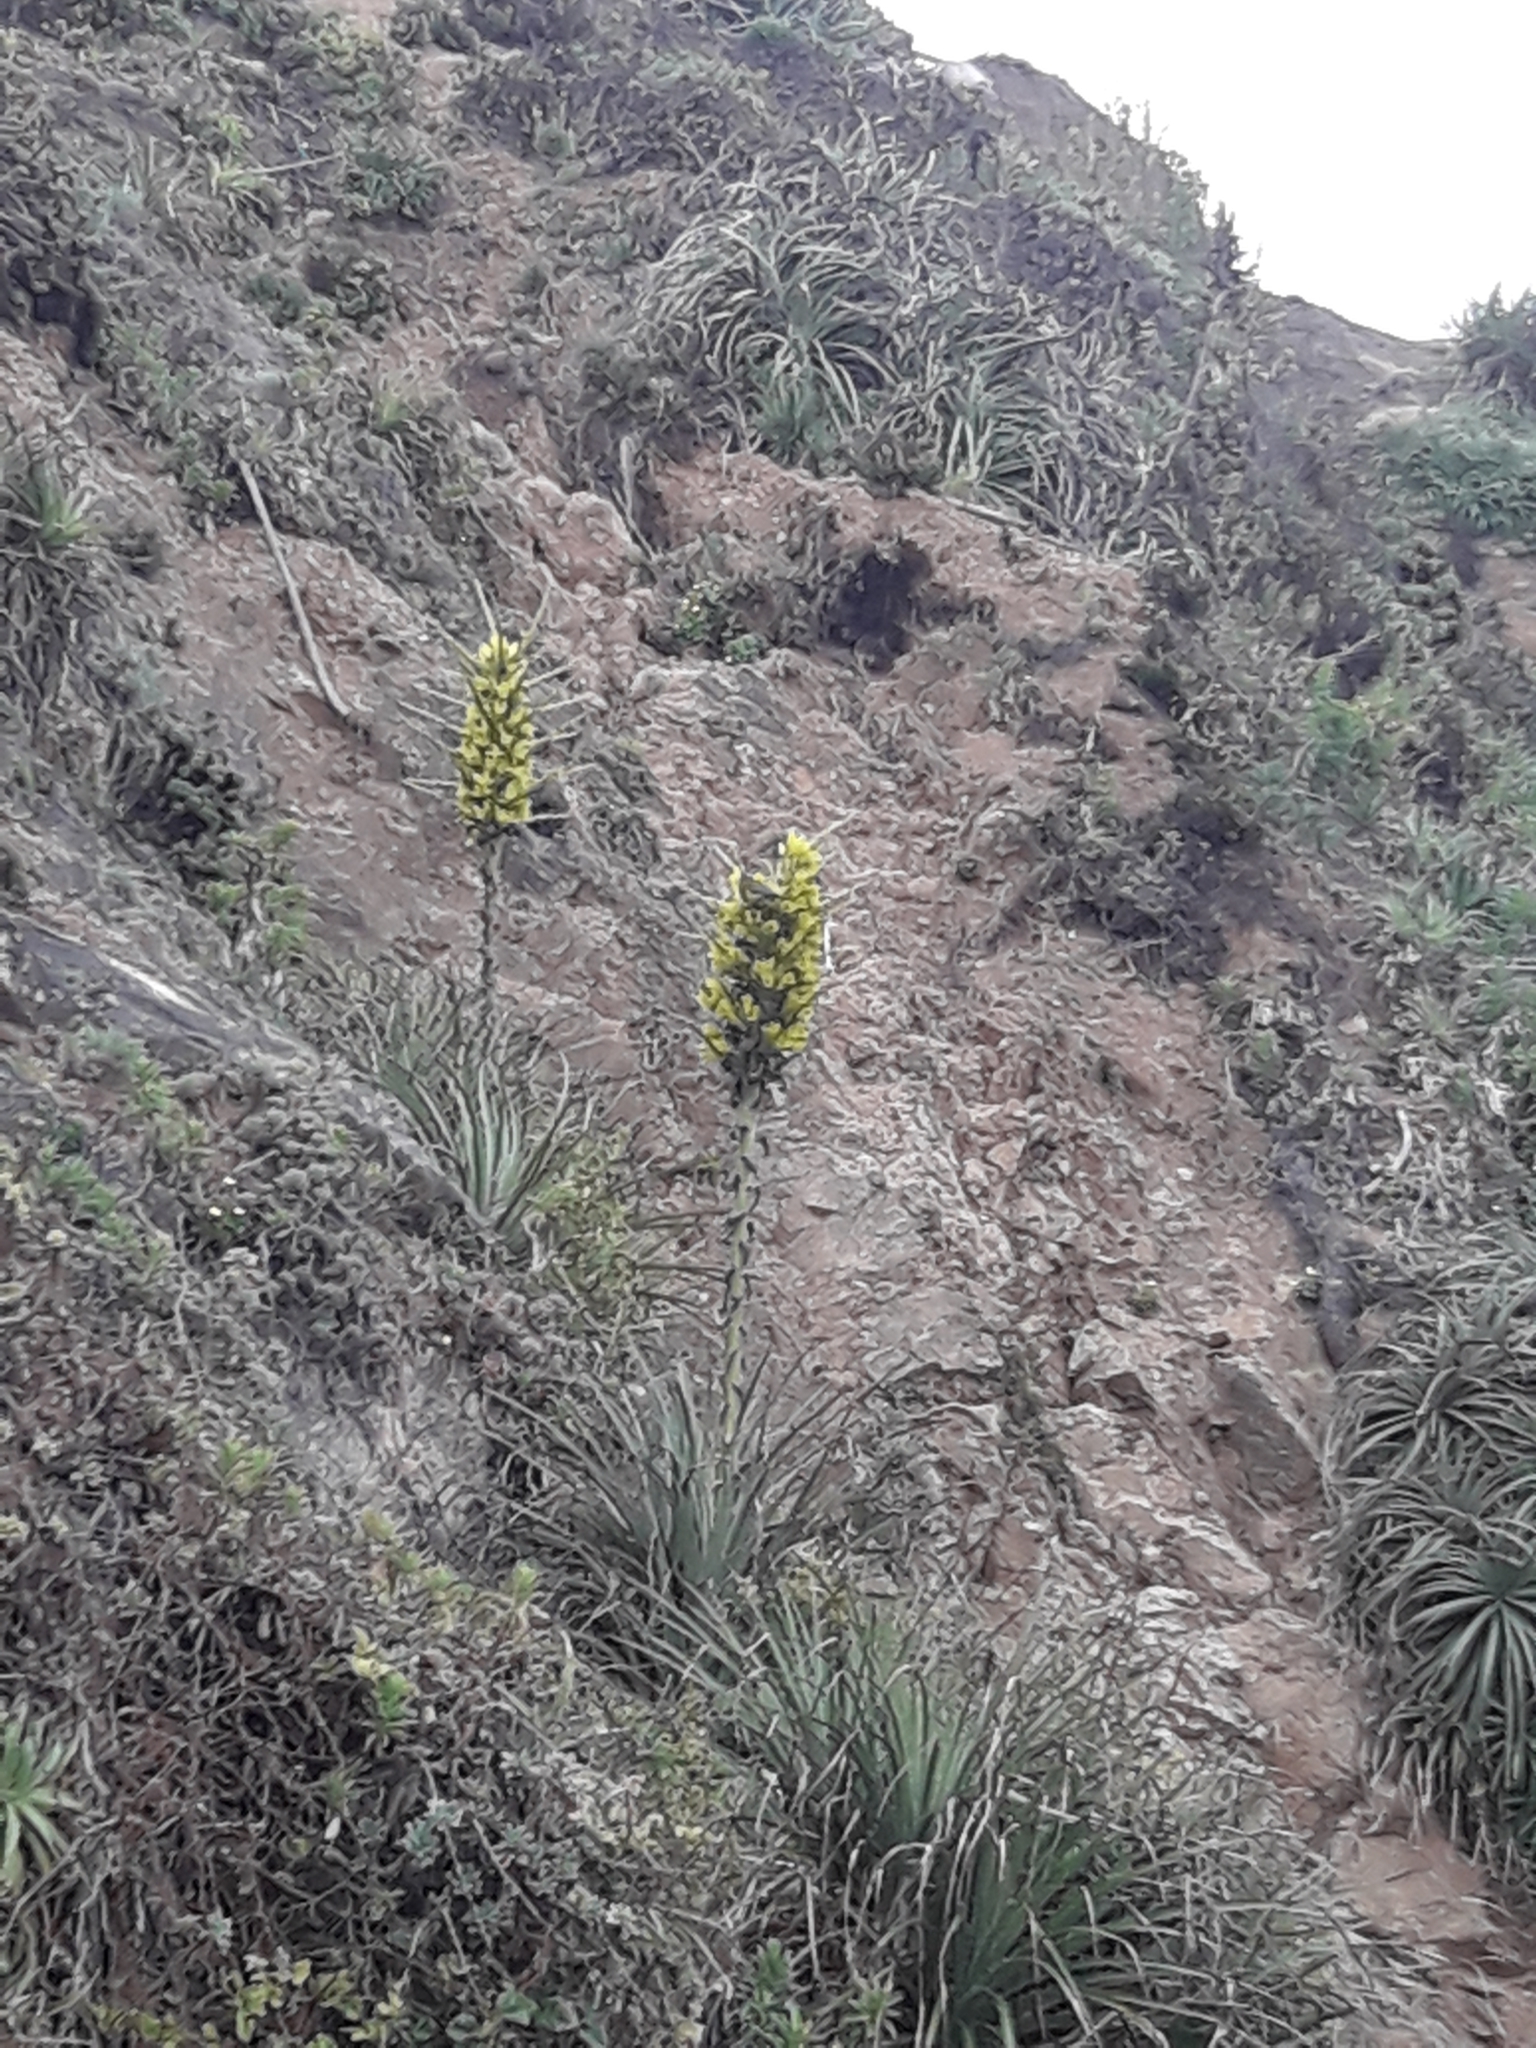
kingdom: Plantae
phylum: Tracheophyta
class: Liliopsida
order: Poales
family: Bromeliaceae
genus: Puya
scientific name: Puya chilensis
